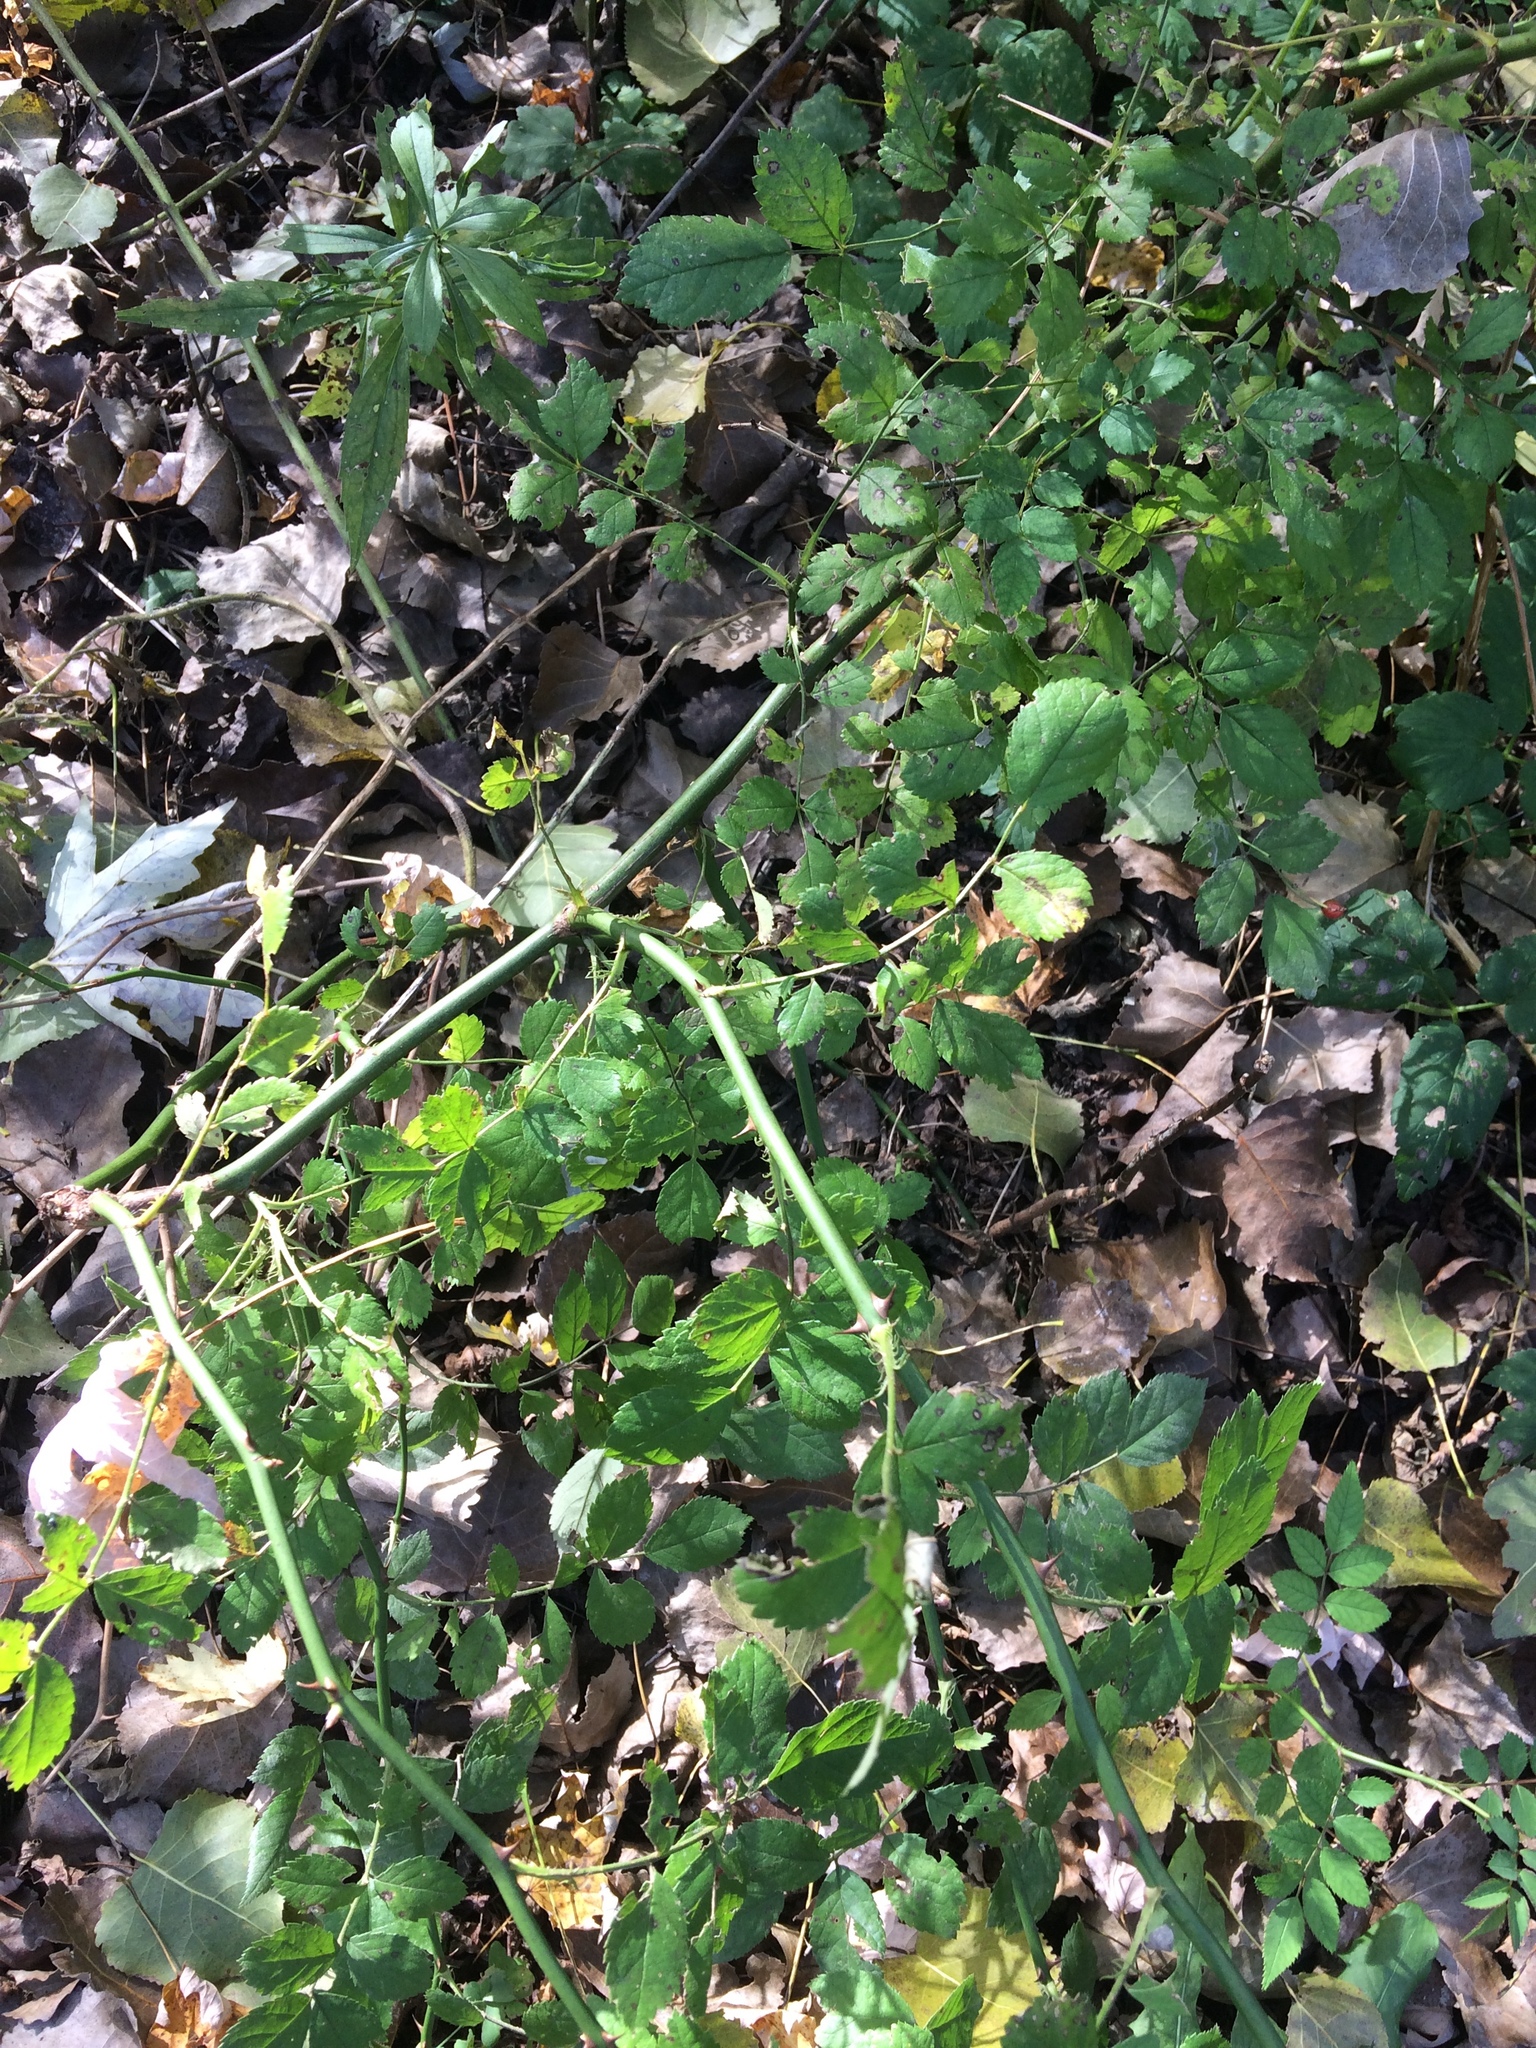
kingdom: Plantae
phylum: Tracheophyta
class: Magnoliopsida
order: Rosales
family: Rosaceae
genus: Rosa
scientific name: Rosa multiflora
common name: Multiflora rose
